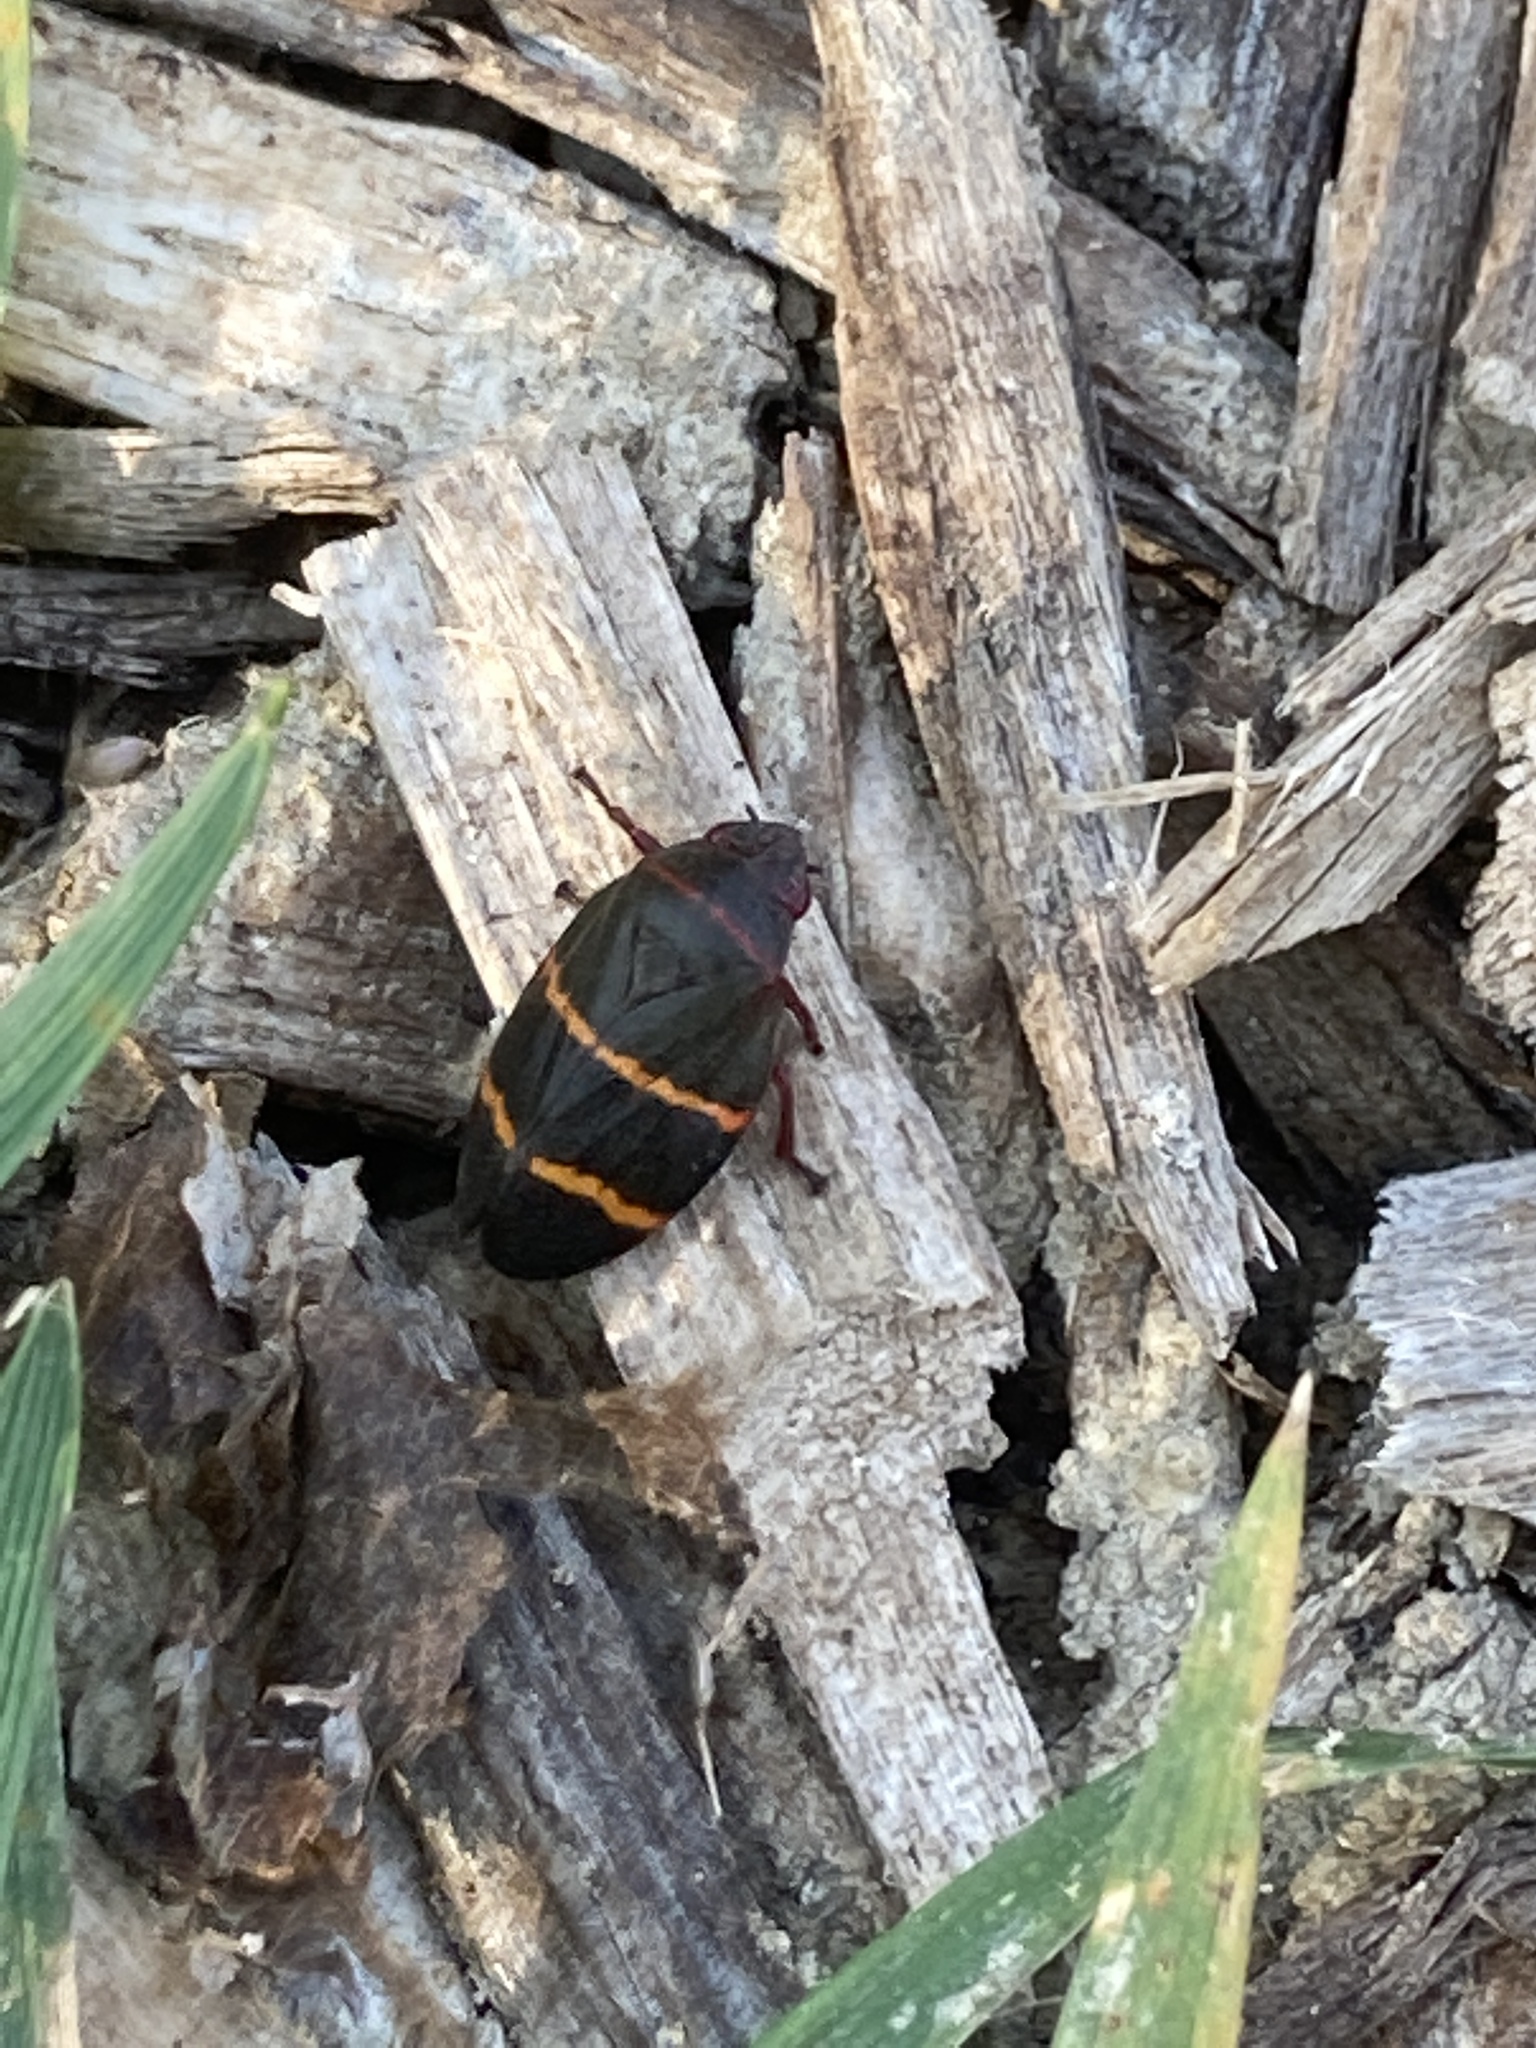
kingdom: Animalia
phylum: Arthropoda
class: Insecta
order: Hemiptera
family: Cercopidae
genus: Prosapia
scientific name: Prosapia bicincta
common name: Twolined spittlebug
